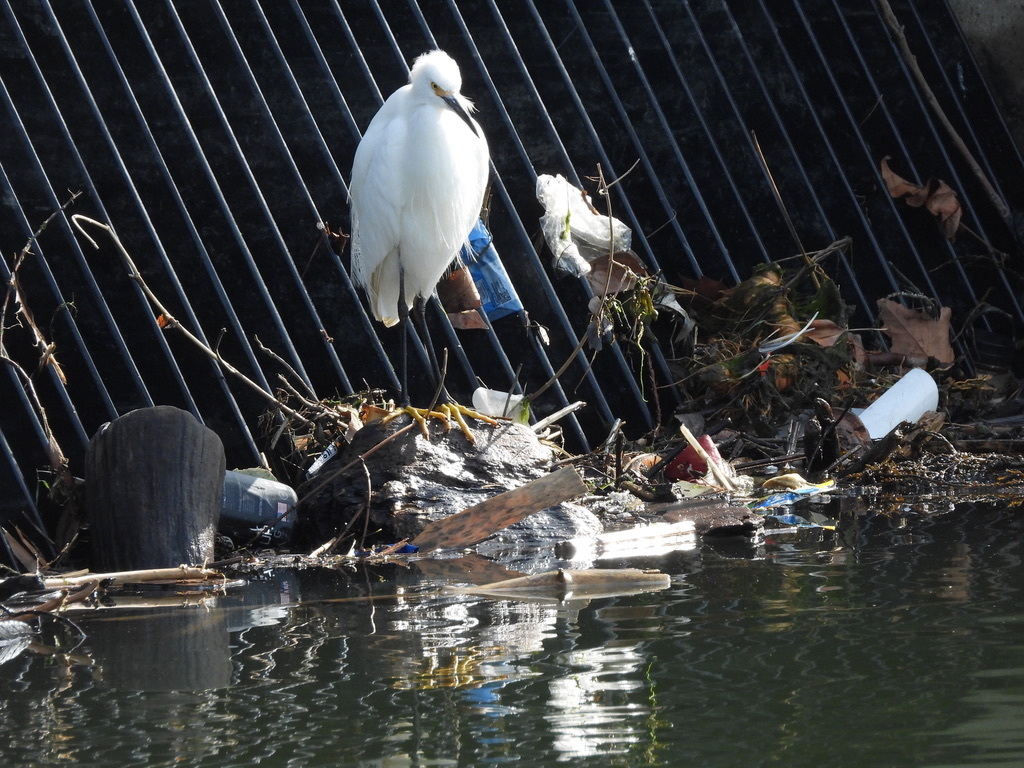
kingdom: Animalia
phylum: Chordata
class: Aves
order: Pelecaniformes
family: Ardeidae
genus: Egretta
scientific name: Egretta thula
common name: Snowy egret
